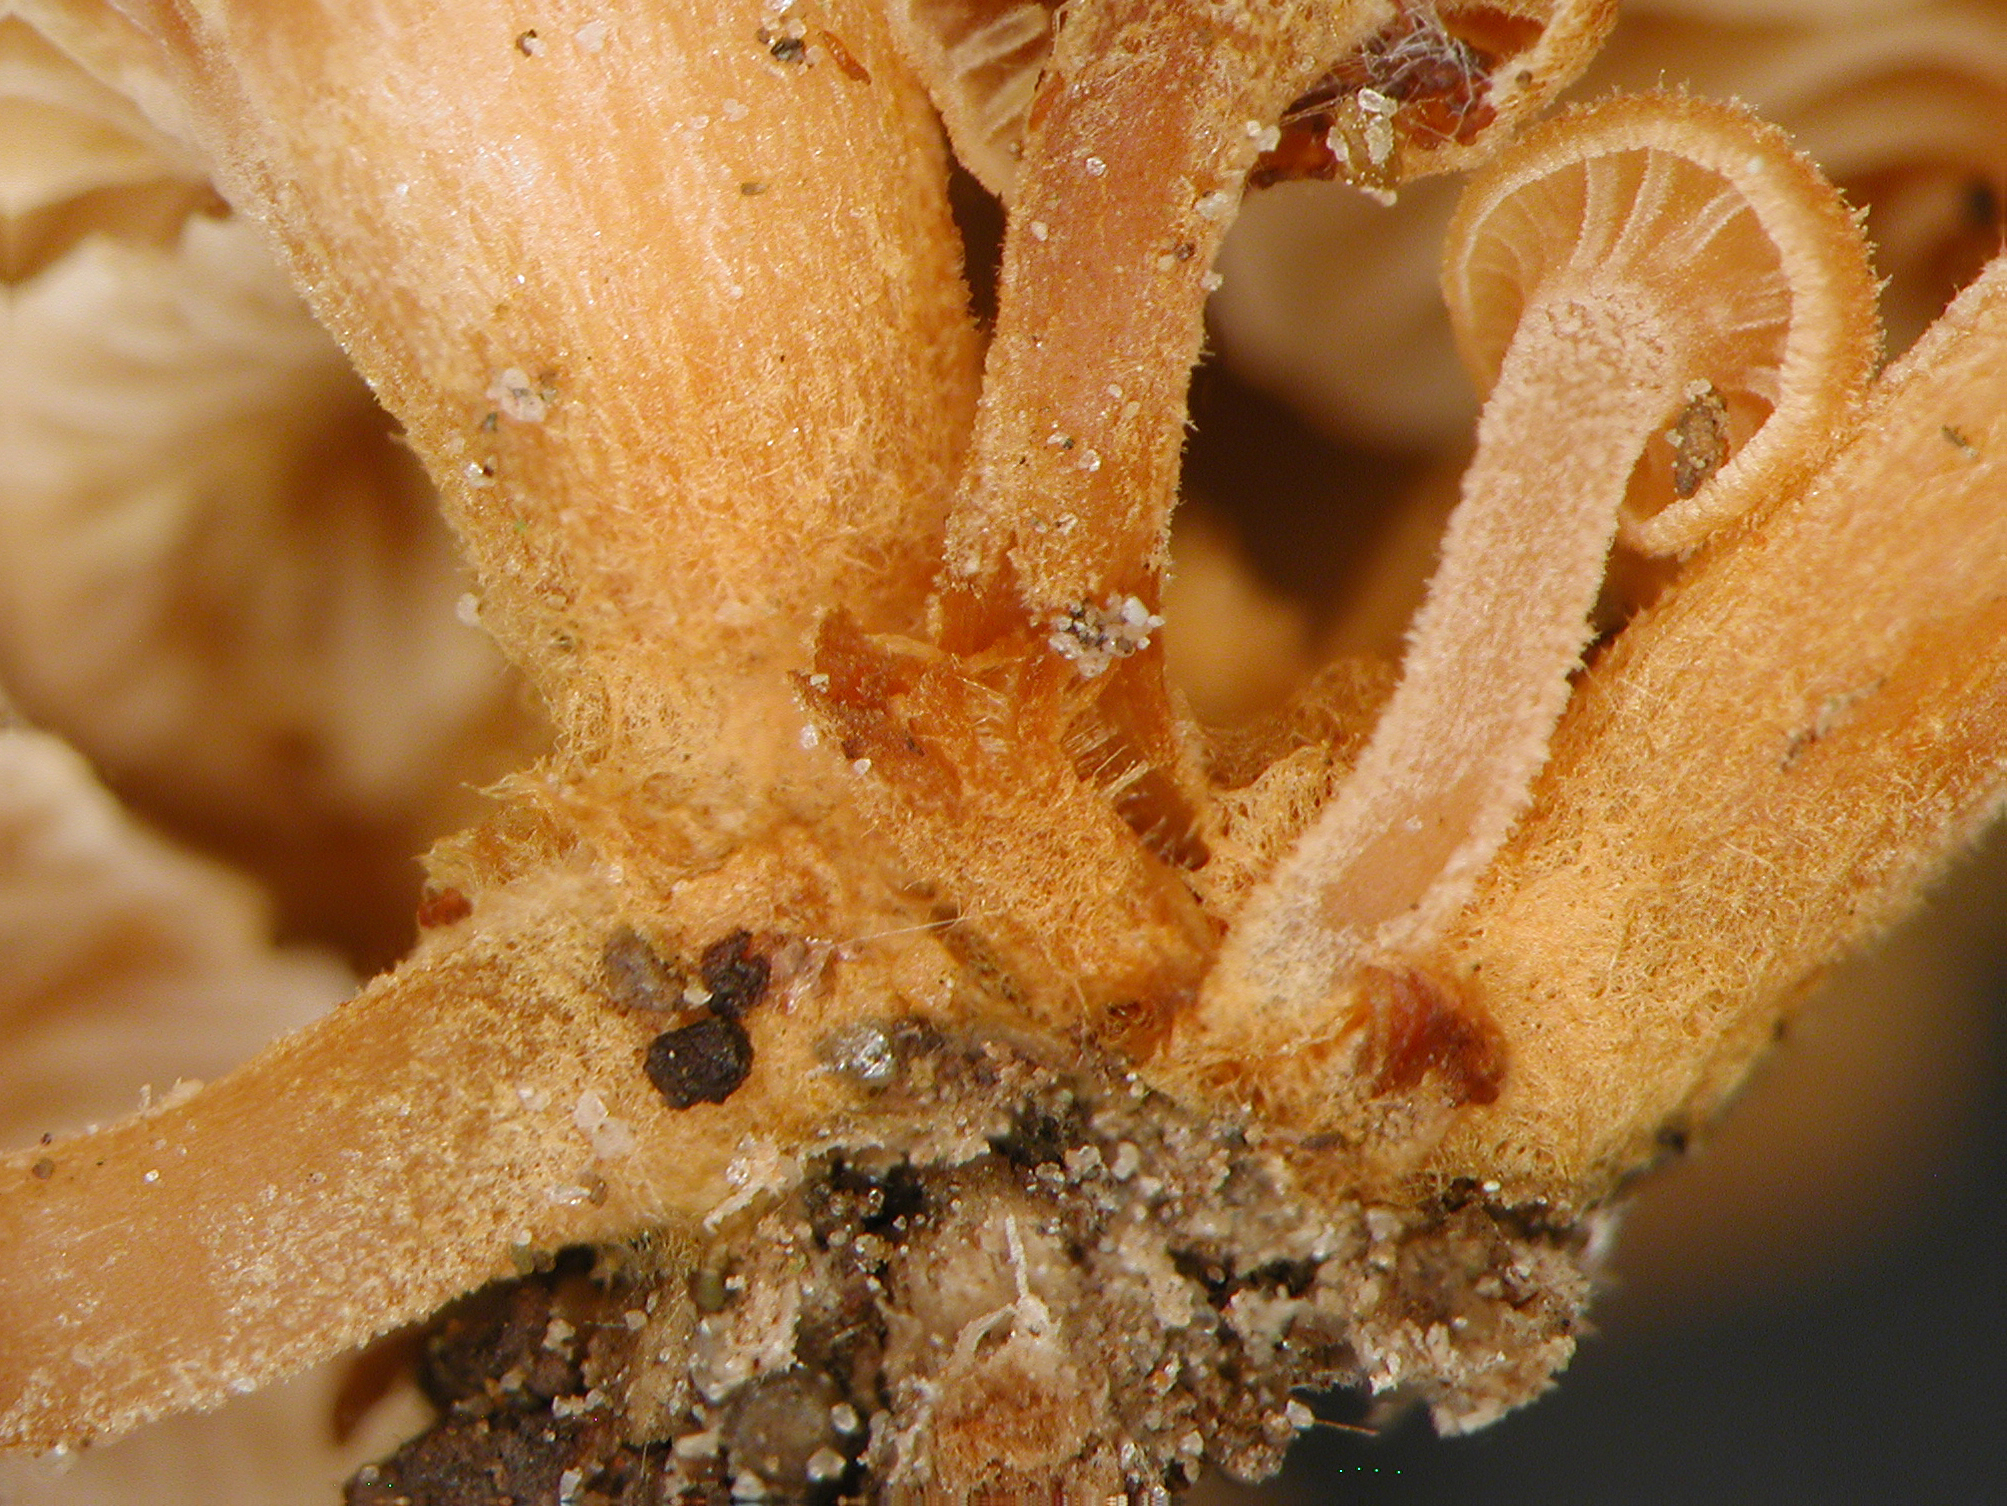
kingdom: Fungi
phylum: Basidiomycota
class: Agaricomycetes
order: Agaricales
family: Mycenaceae
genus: Xeromphalina
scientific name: Xeromphalina podocarpi
